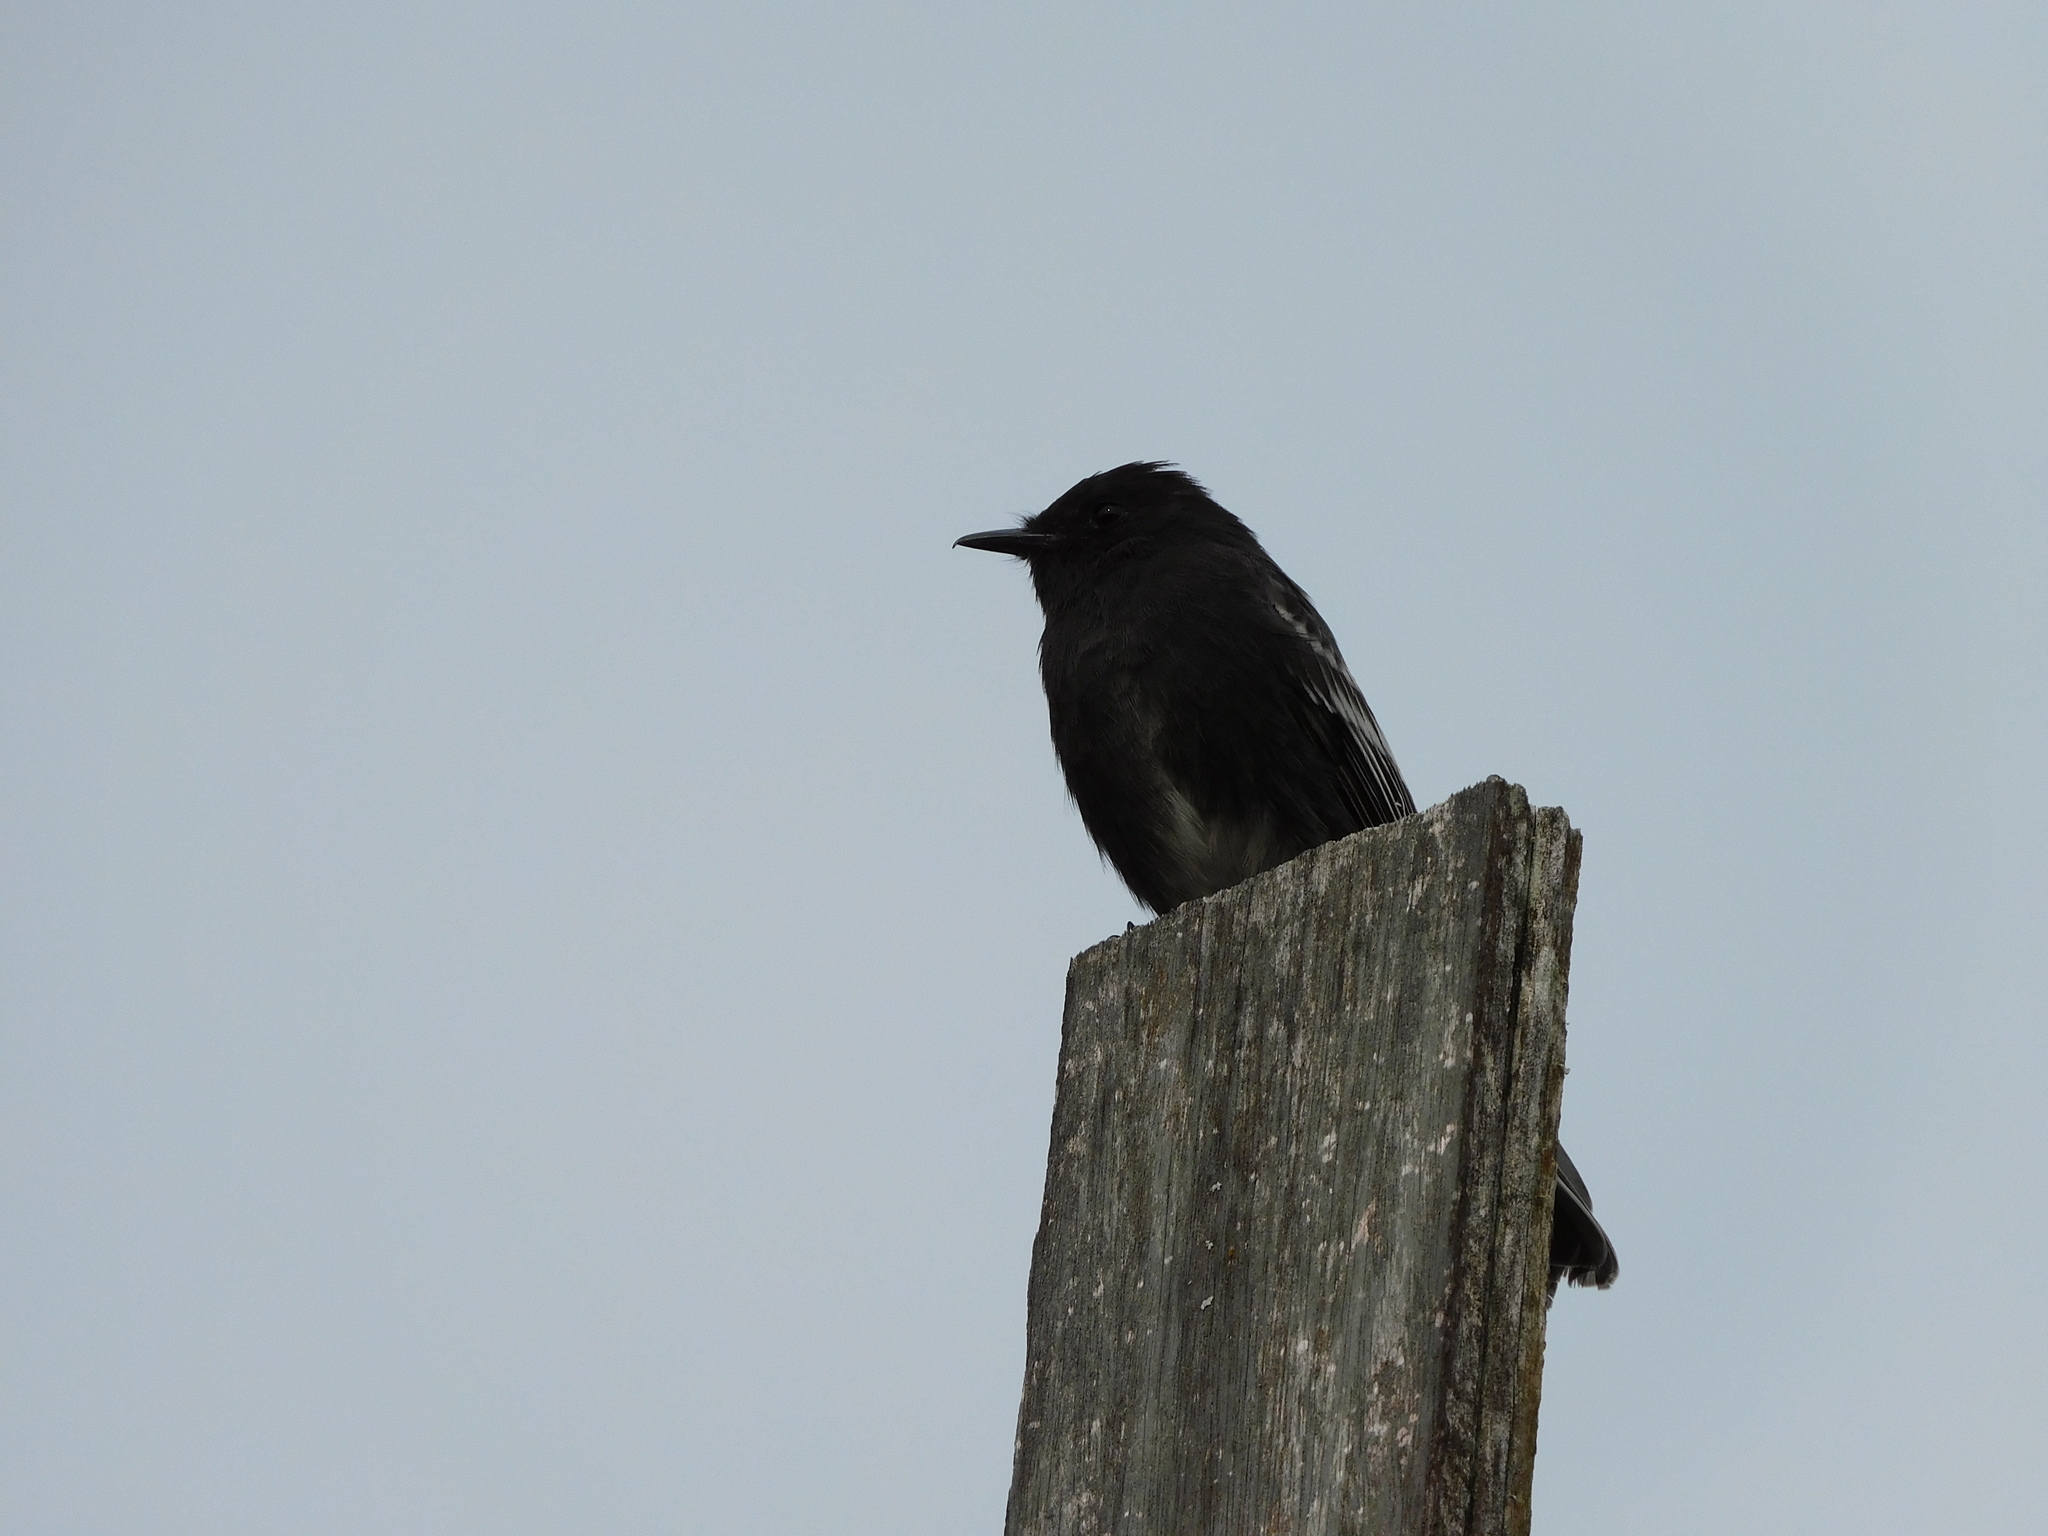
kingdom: Animalia
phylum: Chordata
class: Aves
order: Passeriformes
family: Tyrannidae
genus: Sayornis
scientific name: Sayornis nigricans
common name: Black phoebe
